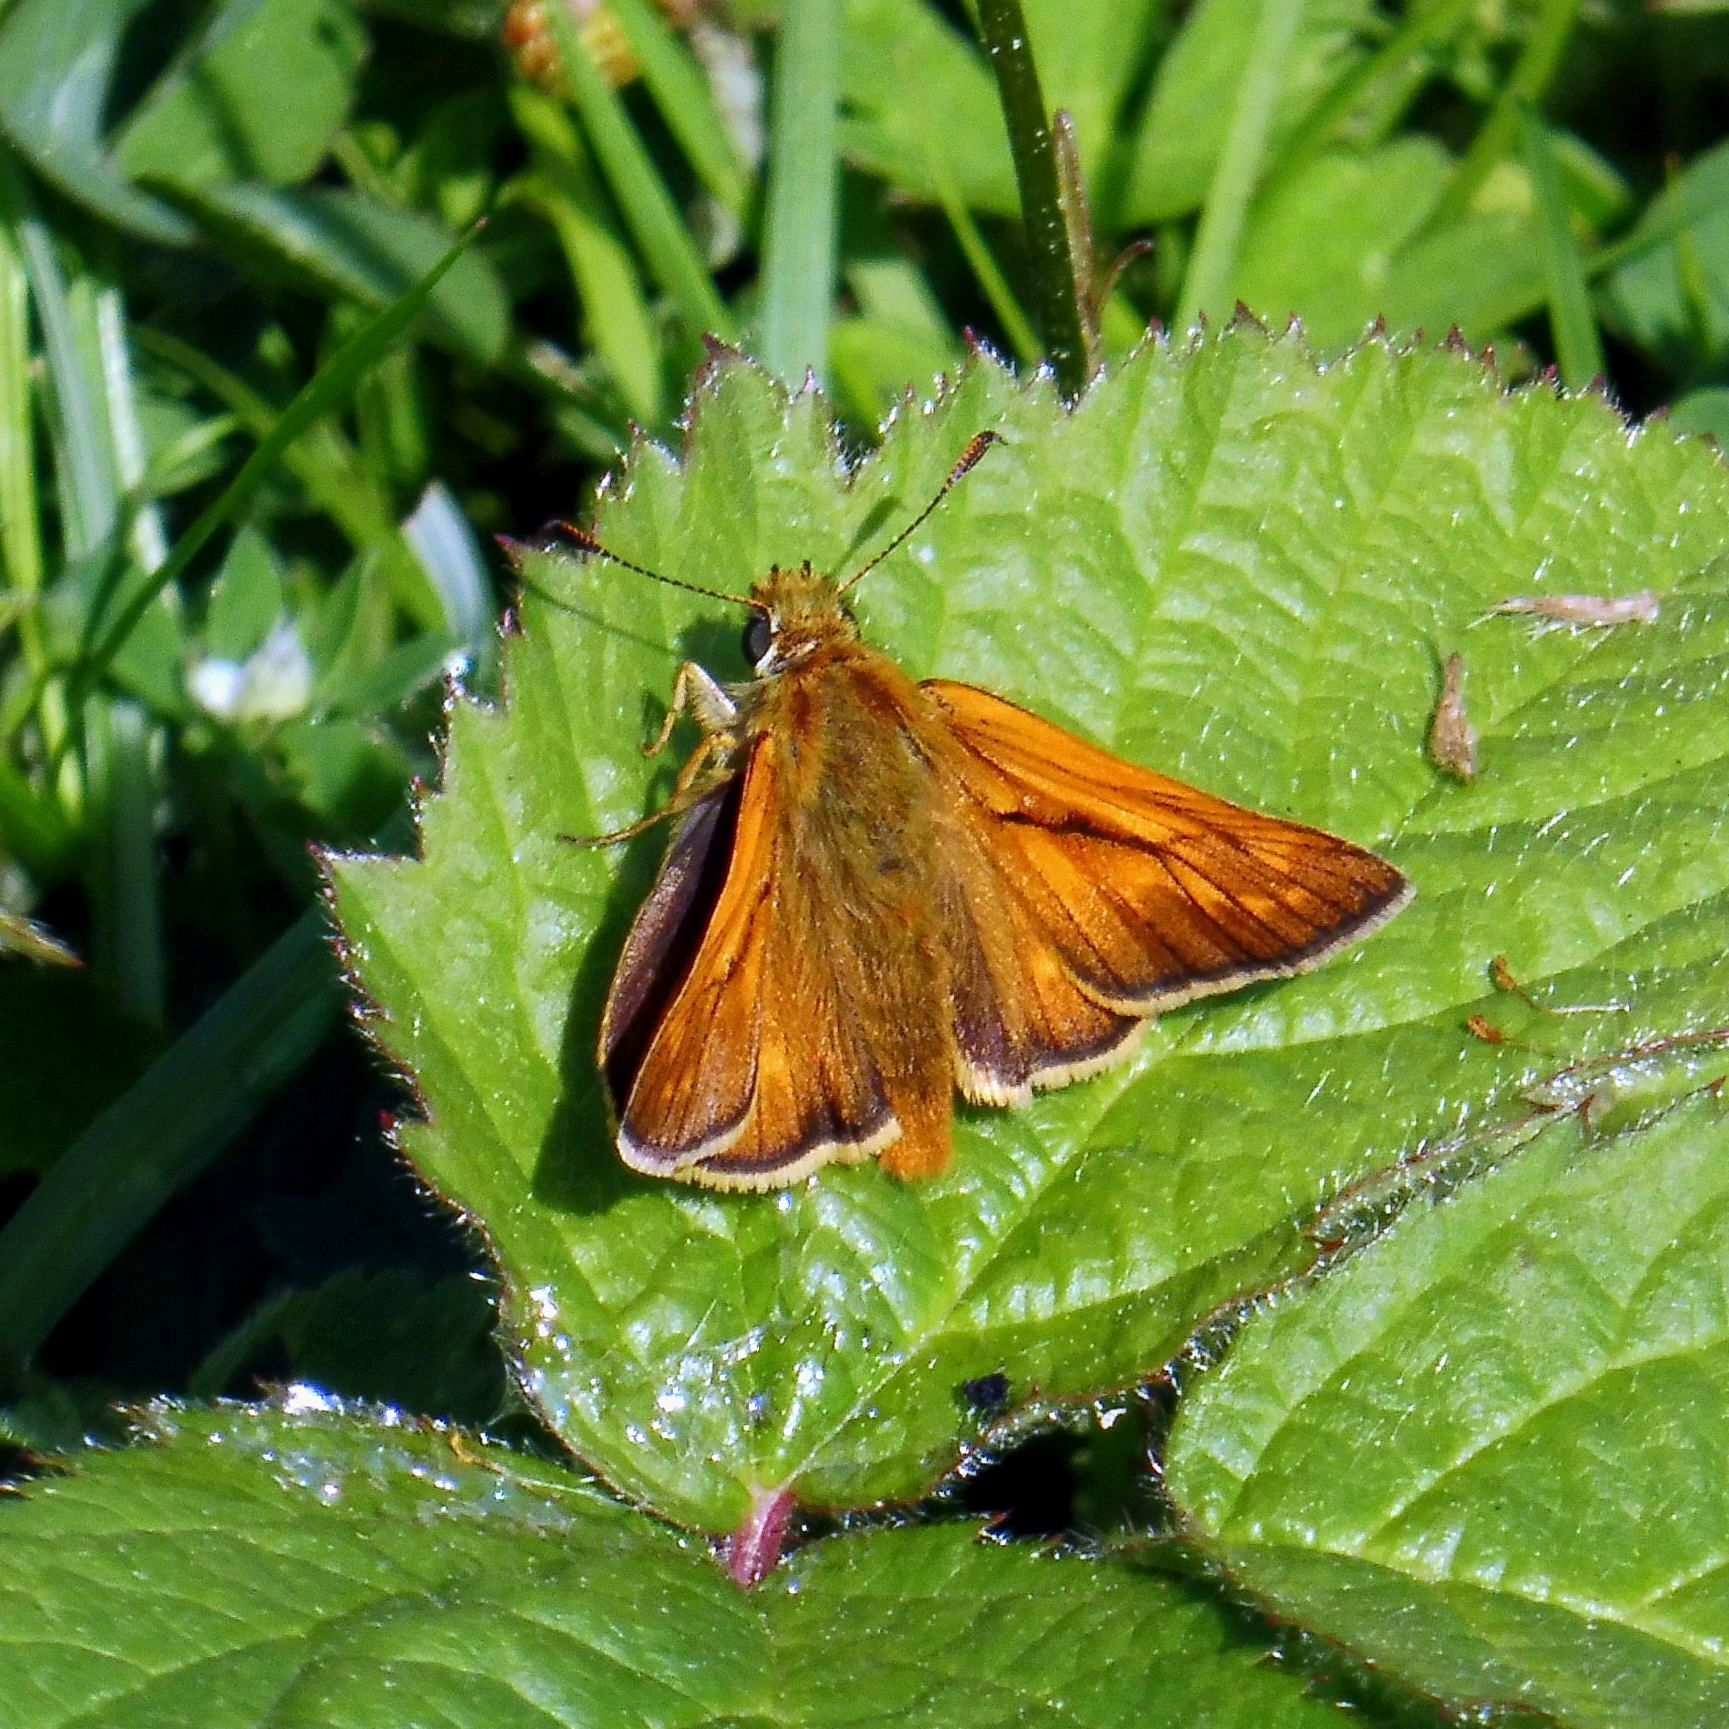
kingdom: Animalia
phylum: Arthropoda
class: Insecta
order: Lepidoptera
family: Hesperiidae
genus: Ochlodes
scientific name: Ochlodes venata
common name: Large skipper
